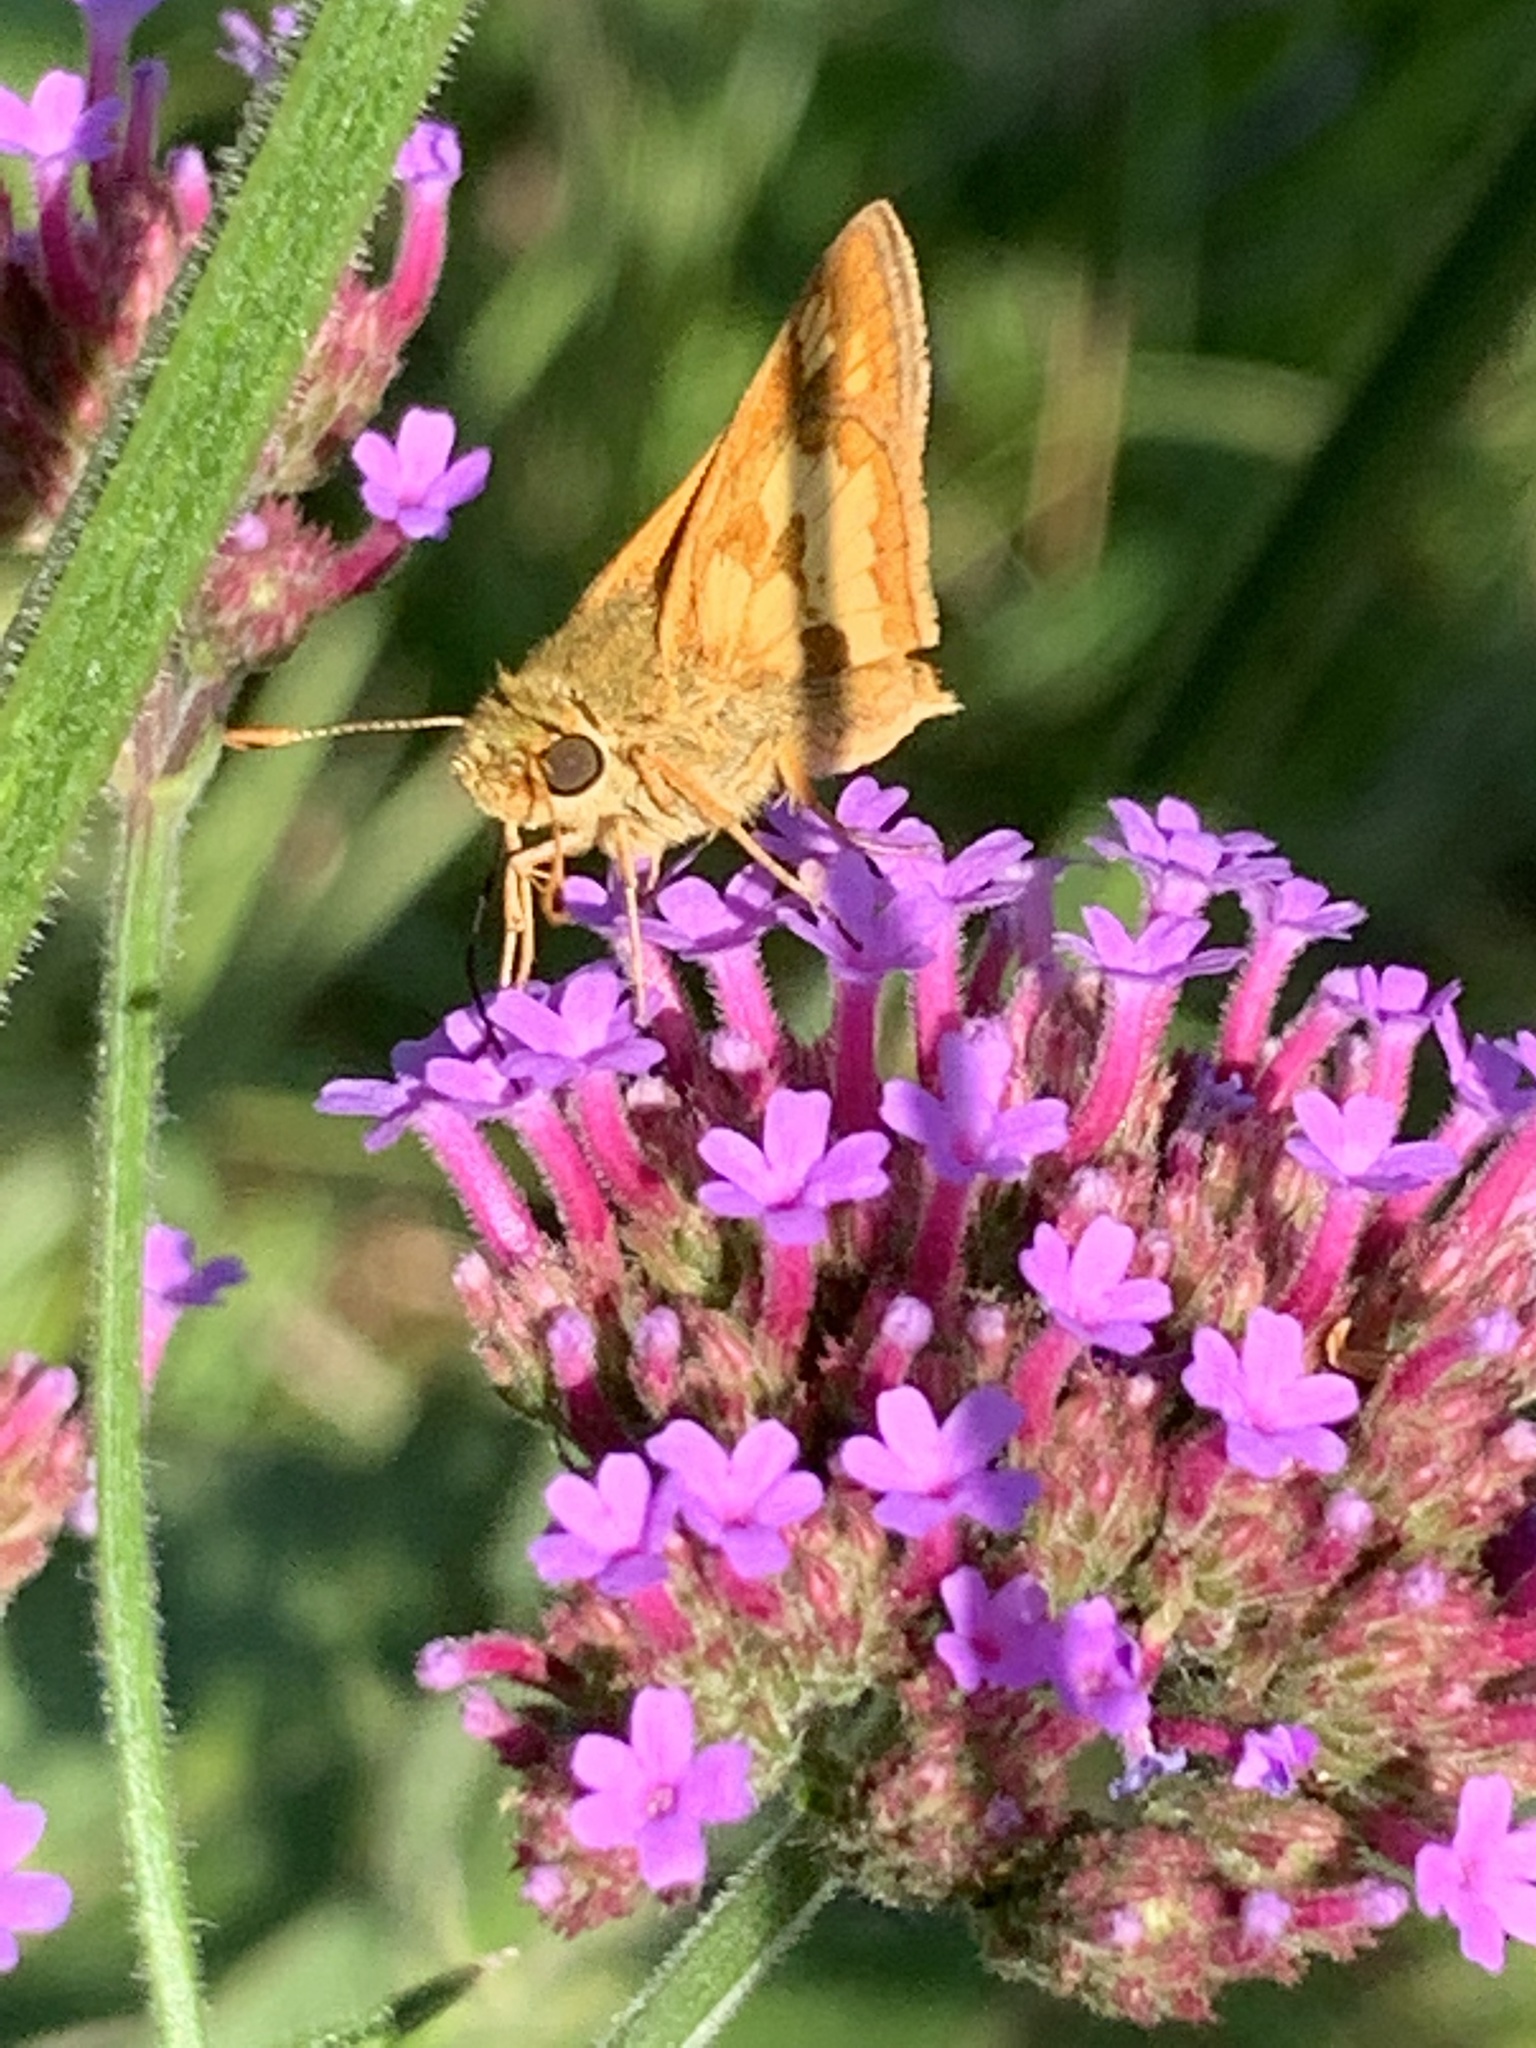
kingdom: Animalia
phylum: Arthropoda
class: Insecta
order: Lepidoptera
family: Hesperiidae
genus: Polites
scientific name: Polites coras
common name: Peck's skipper
